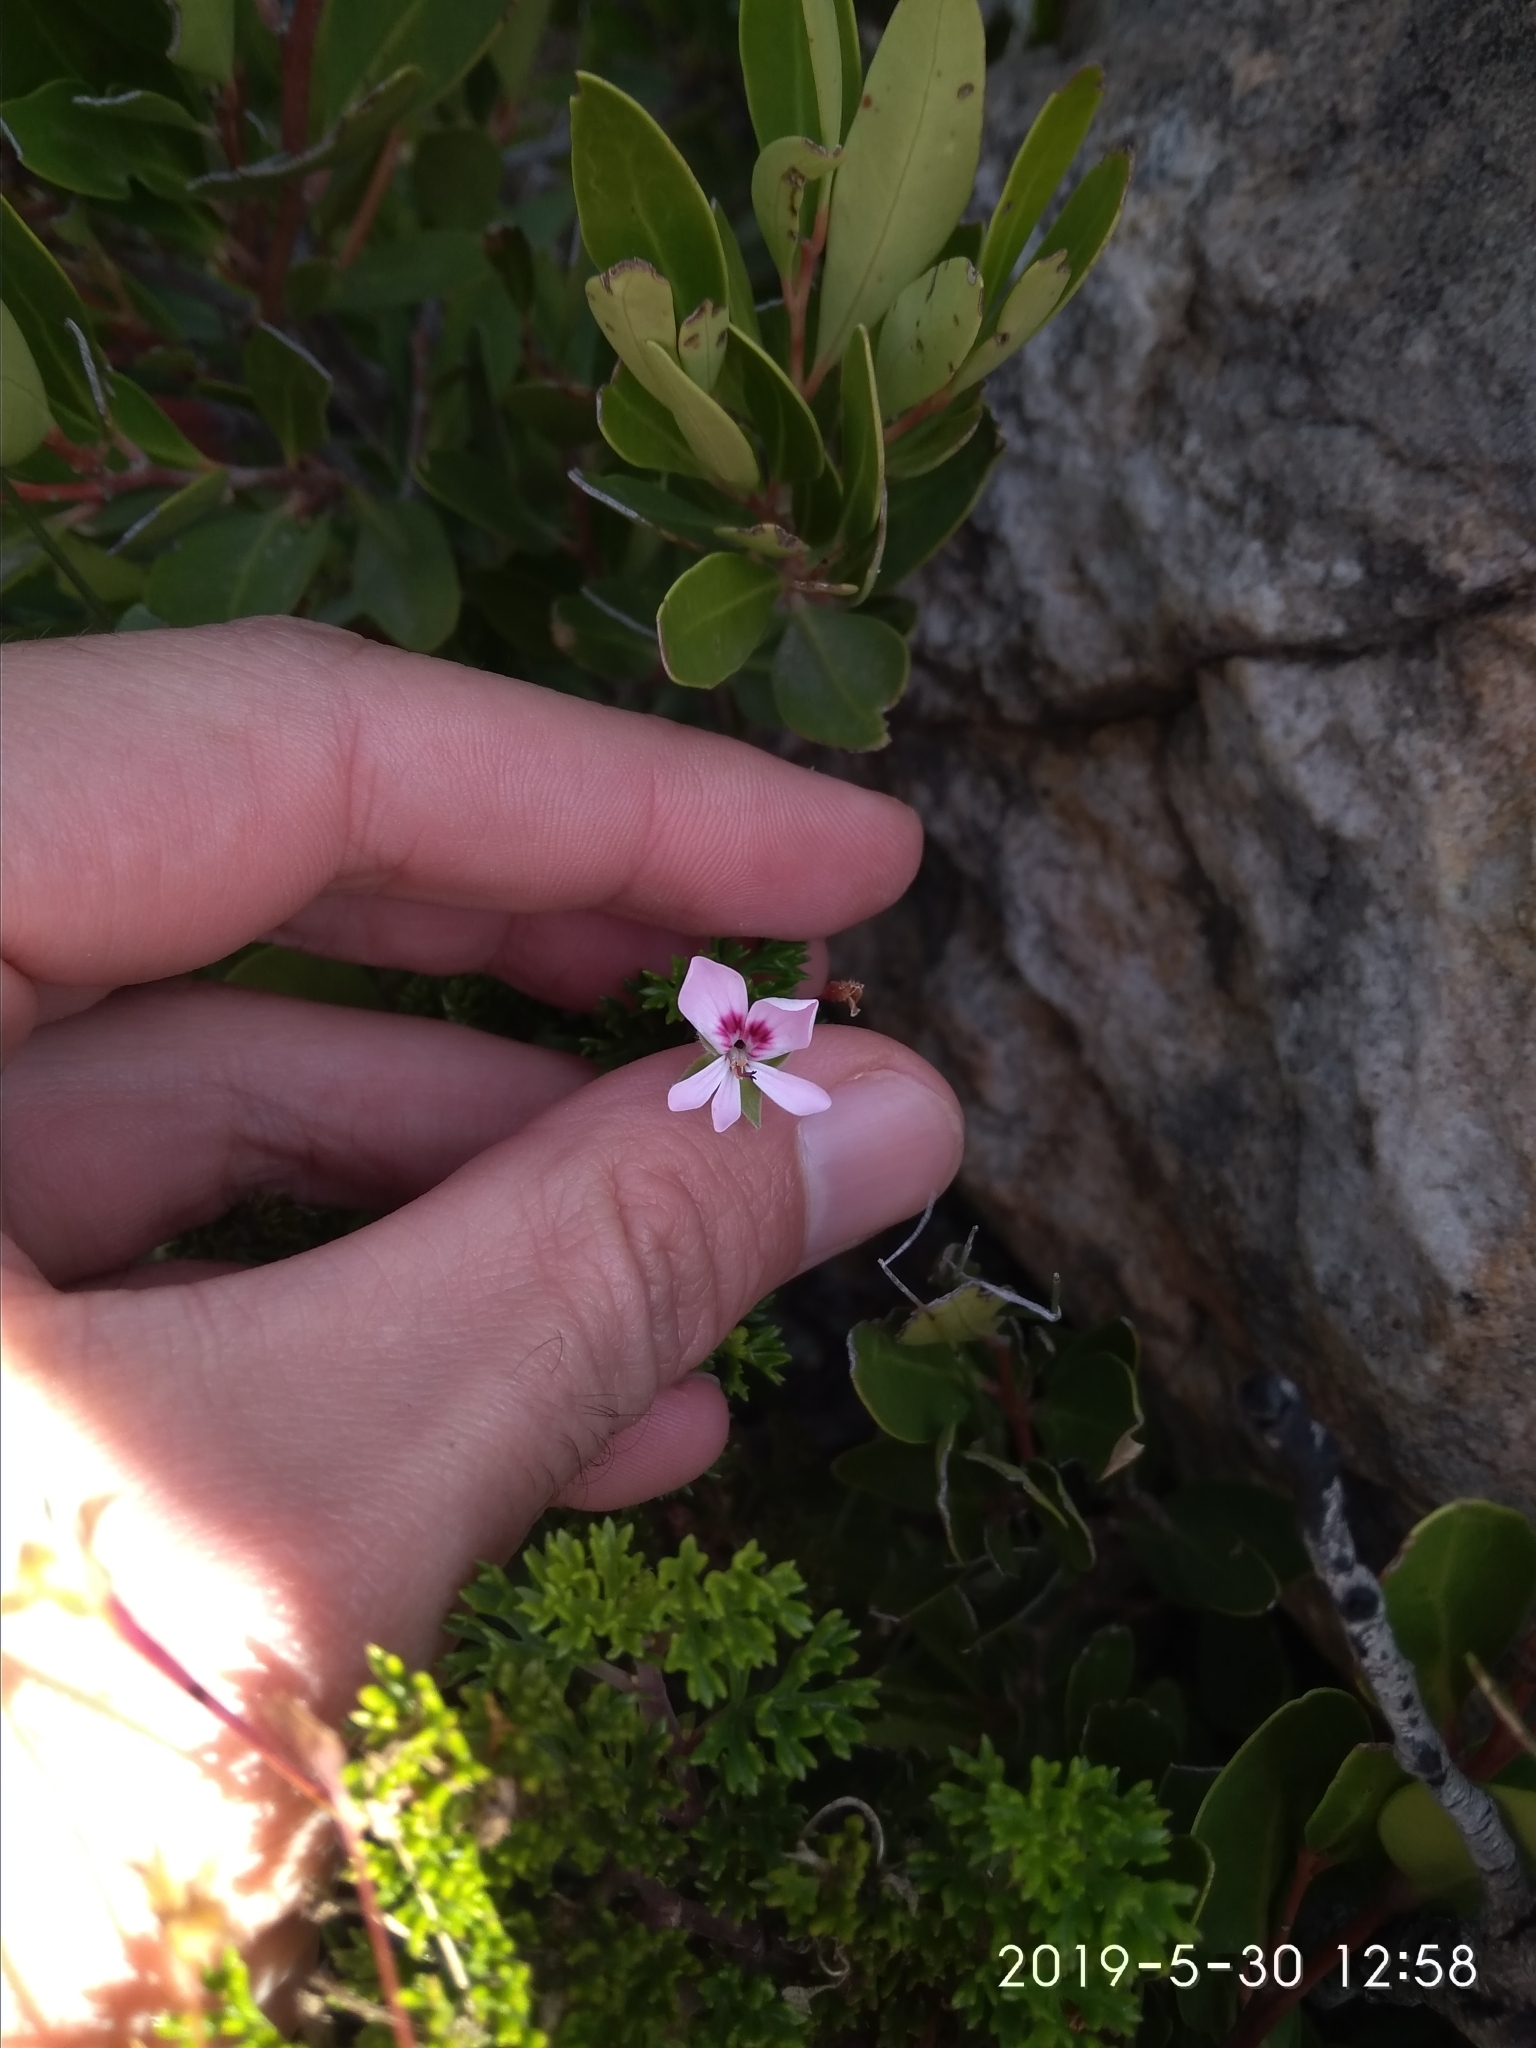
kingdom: Plantae
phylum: Tracheophyta
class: Magnoliopsida
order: Geraniales
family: Geraniaceae
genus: Pelargonium
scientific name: Pelargonium fruticosum
